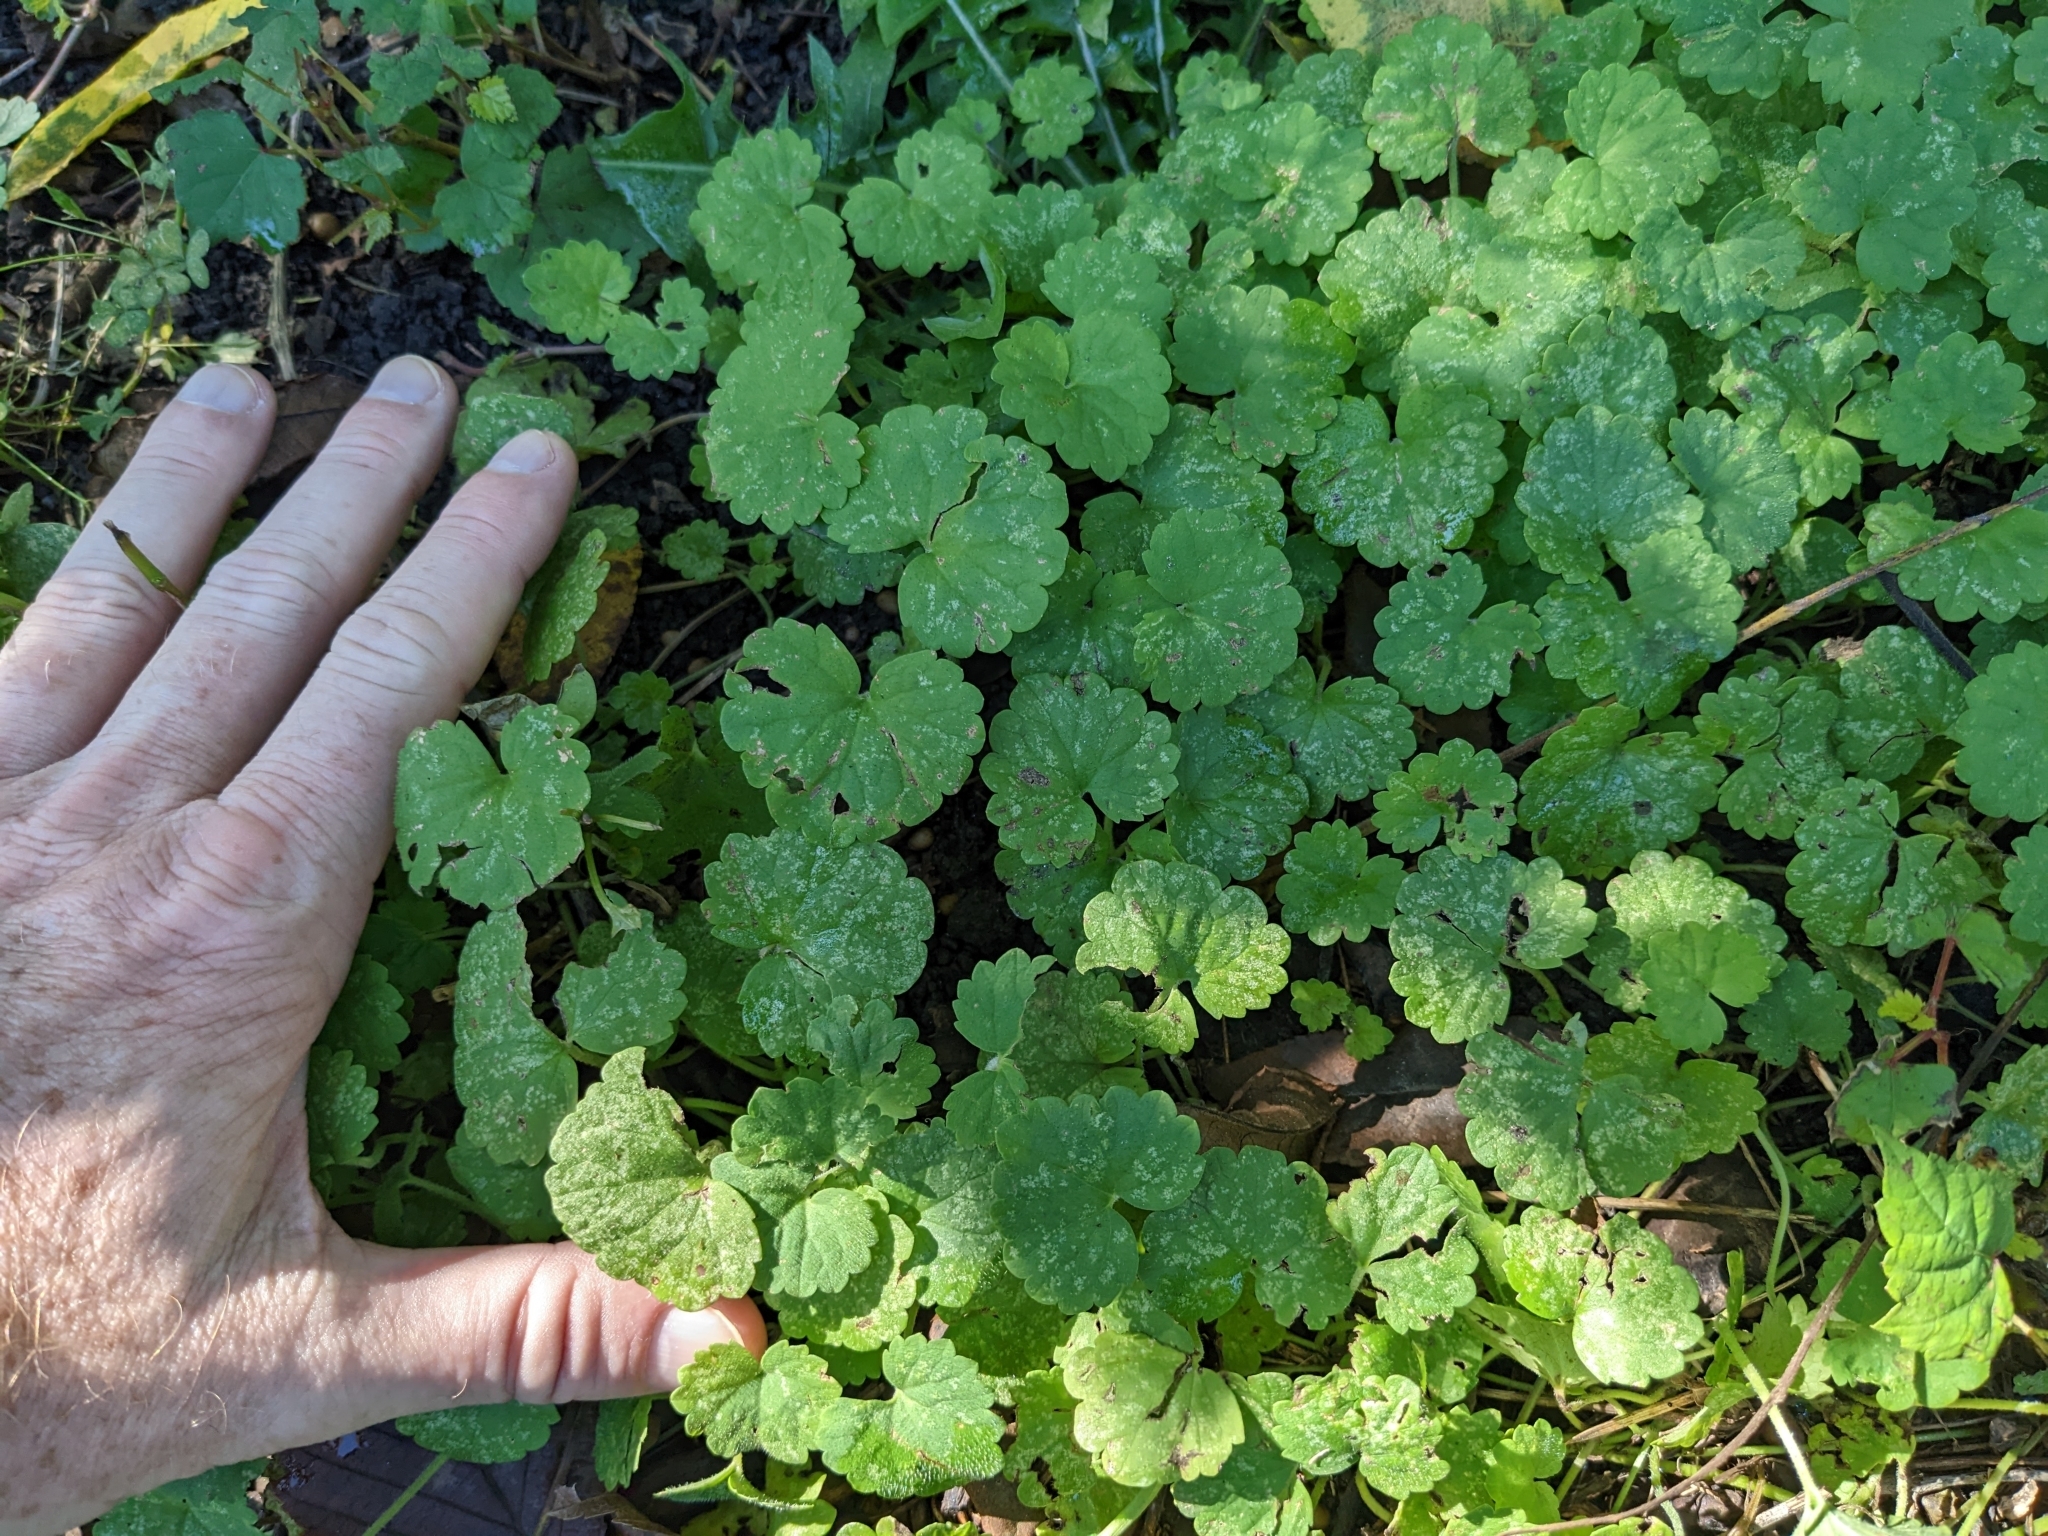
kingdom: Plantae
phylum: Tracheophyta
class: Magnoliopsida
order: Lamiales
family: Lamiaceae
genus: Glechoma
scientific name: Glechoma hederacea
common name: Ground ivy
